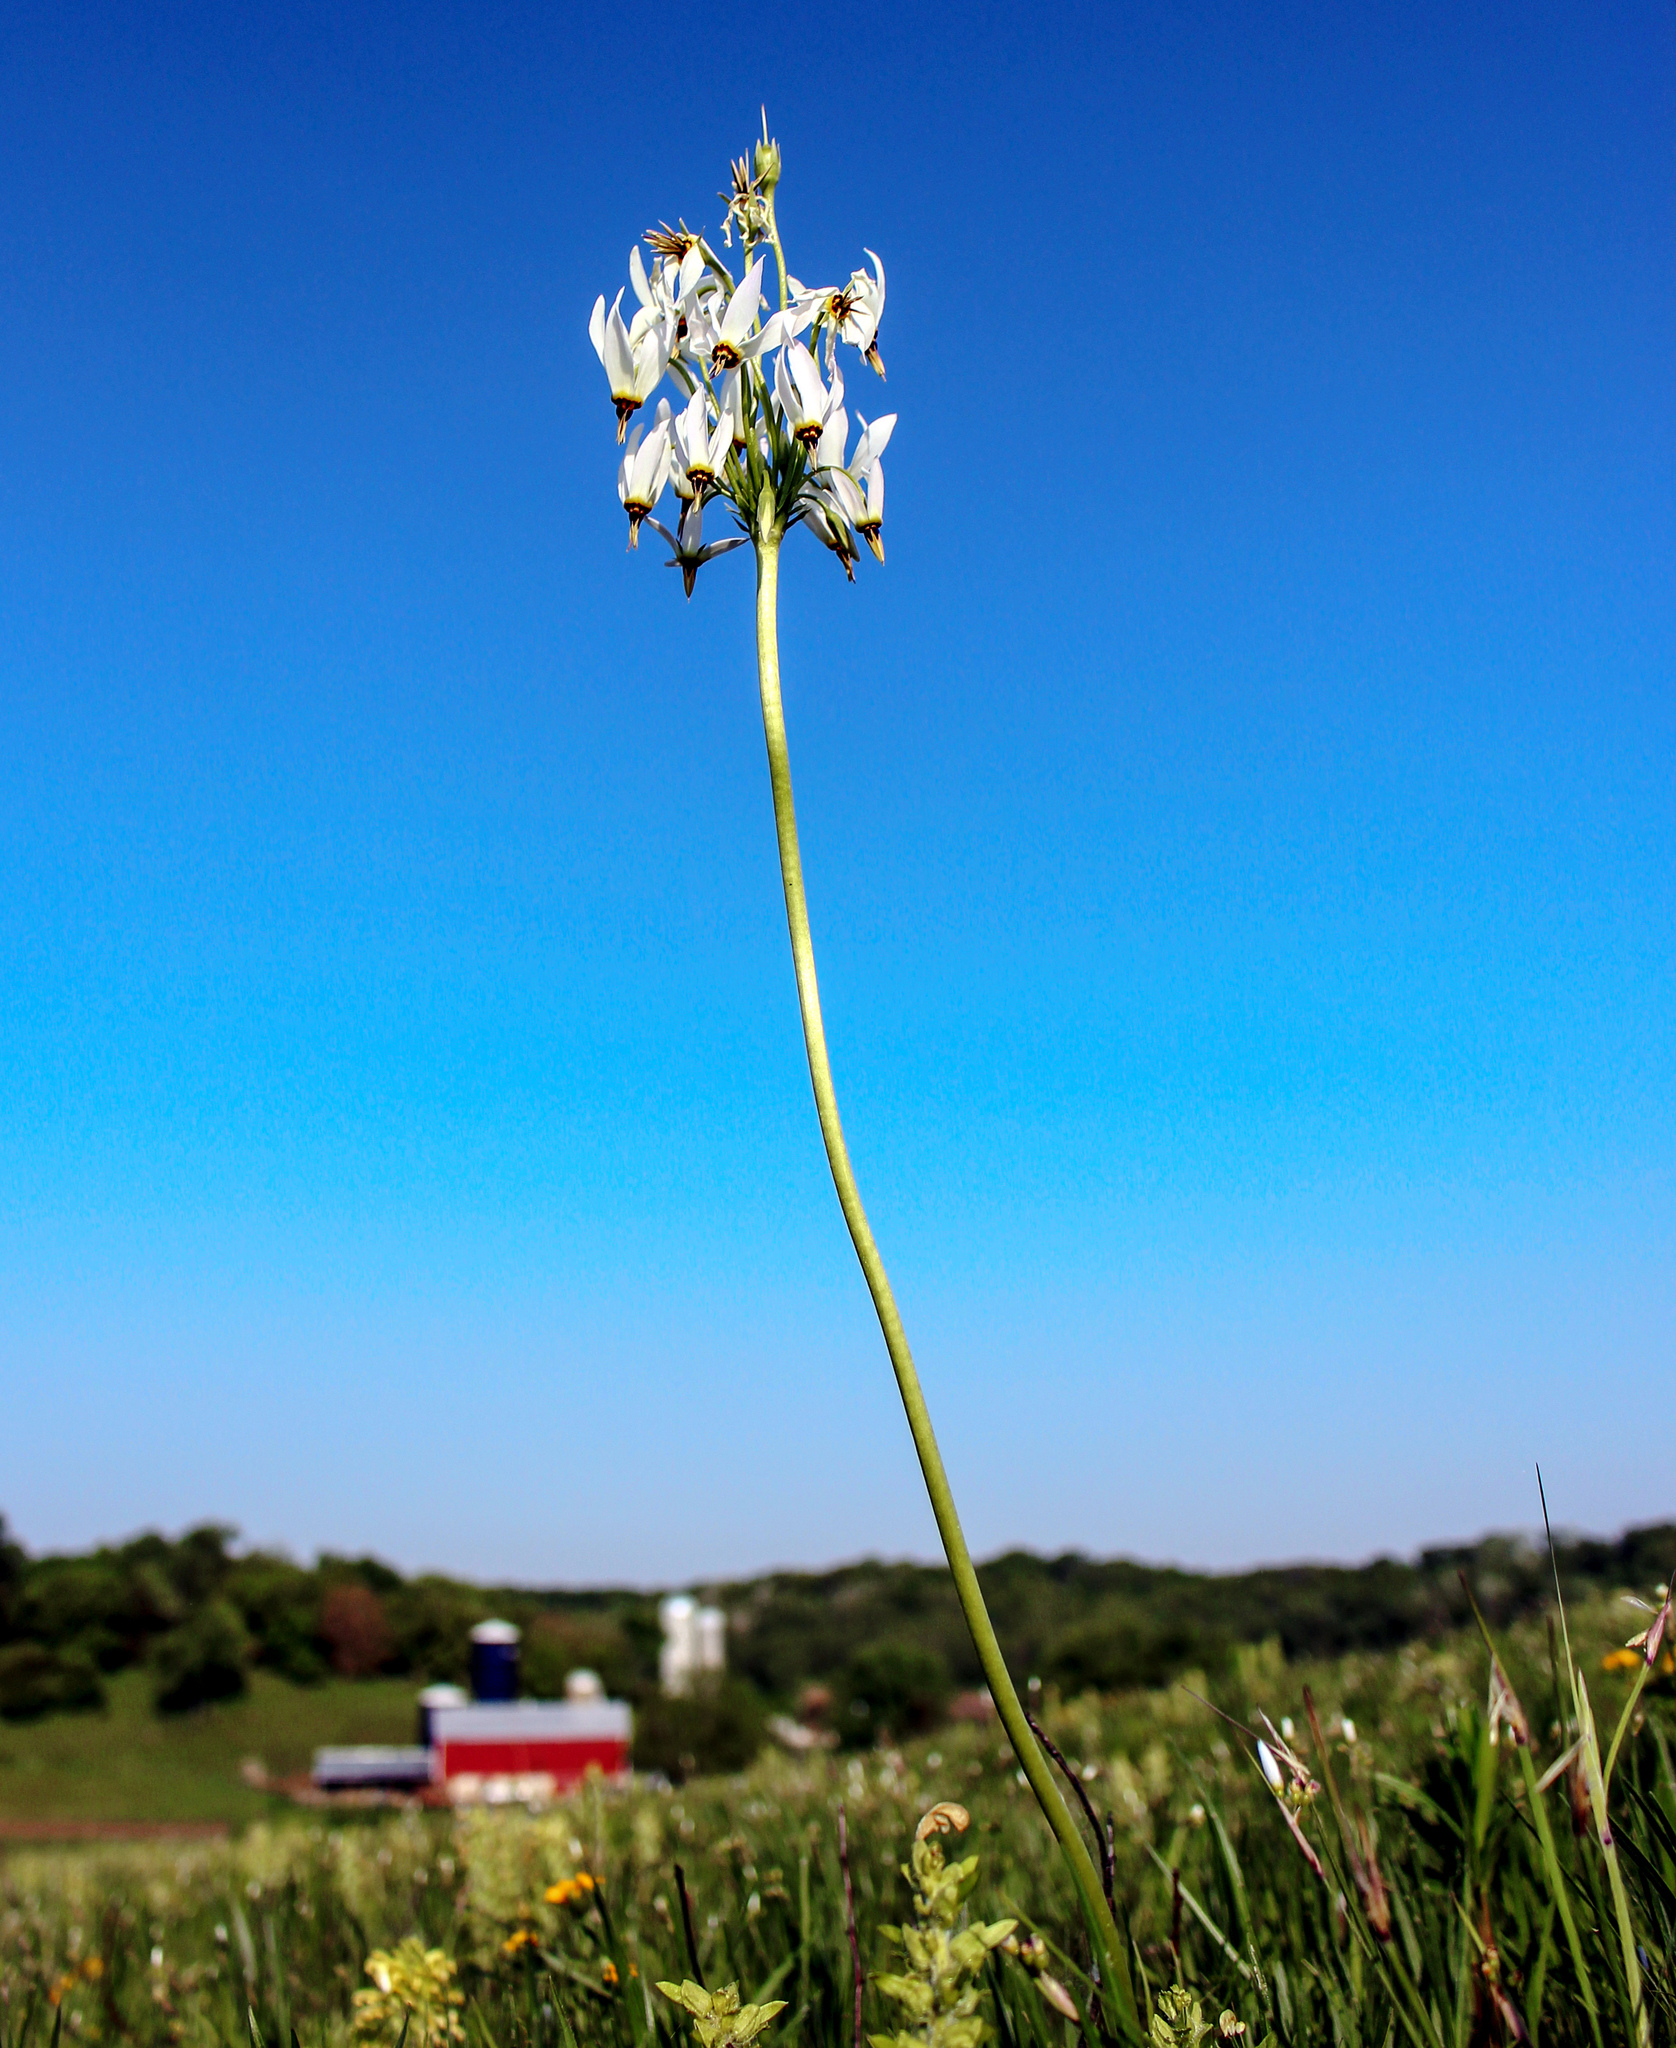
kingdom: Plantae
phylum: Tracheophyta
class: Magnoliopsida
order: Ericales
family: Primulaceae
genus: Dodecatheon
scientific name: Dodecatheon meadia
